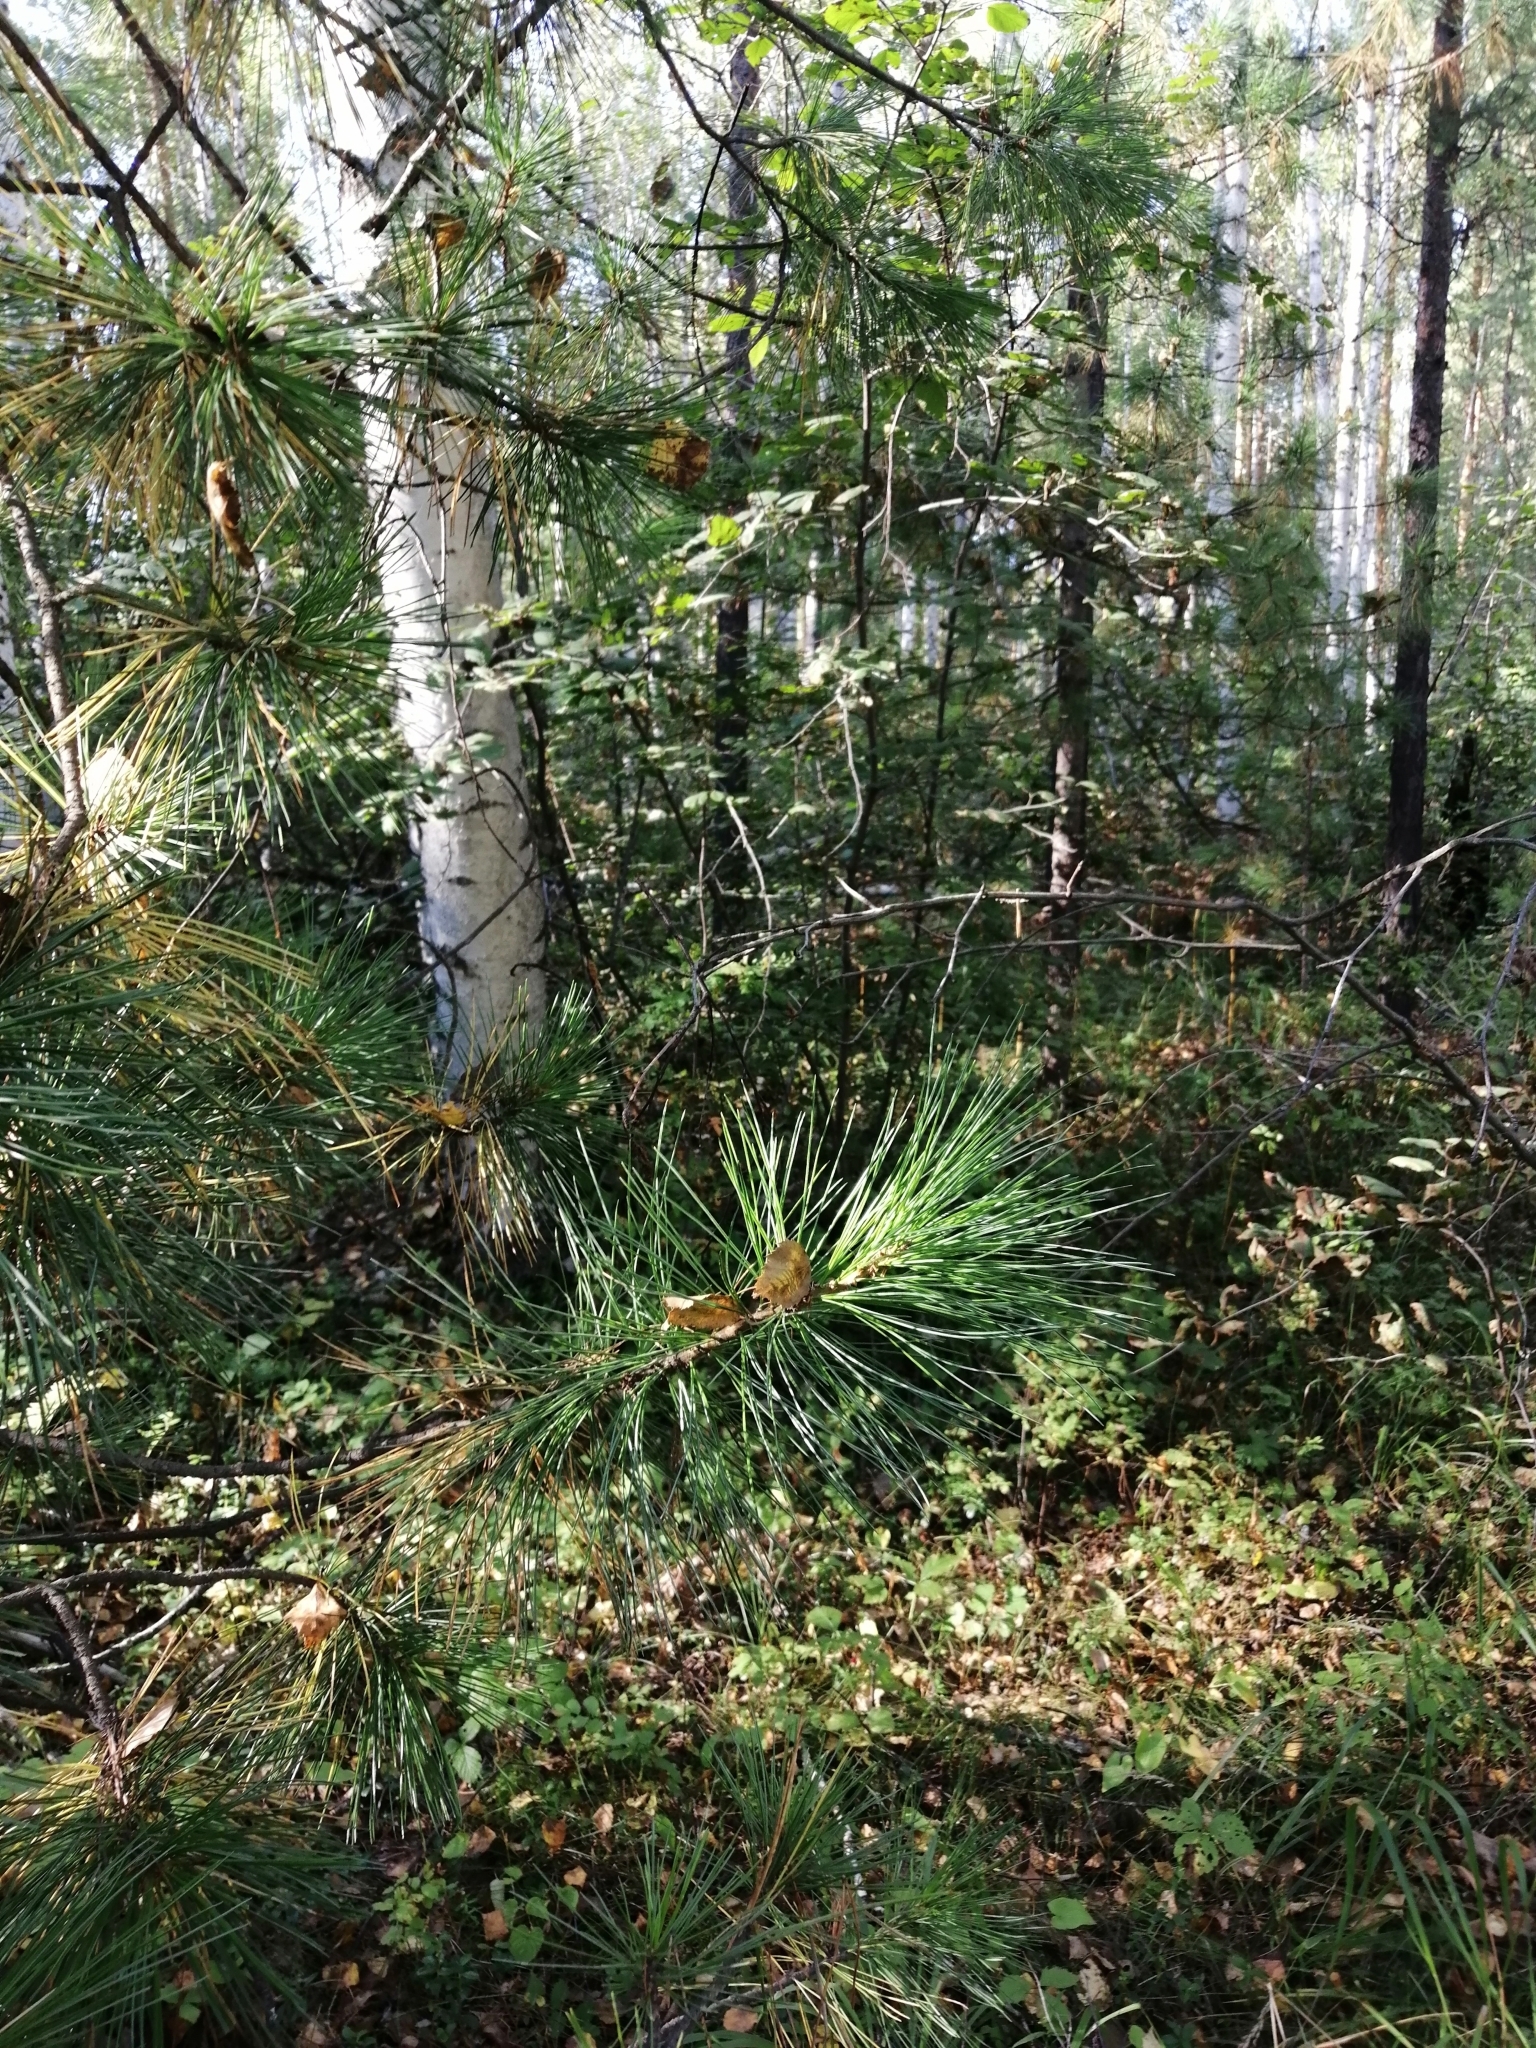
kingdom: Plantae
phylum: Tracheophyta
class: Pinopsida
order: Pinales
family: Pinaceae
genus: Pinus
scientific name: Pinus sibirica
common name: Siberian pine
